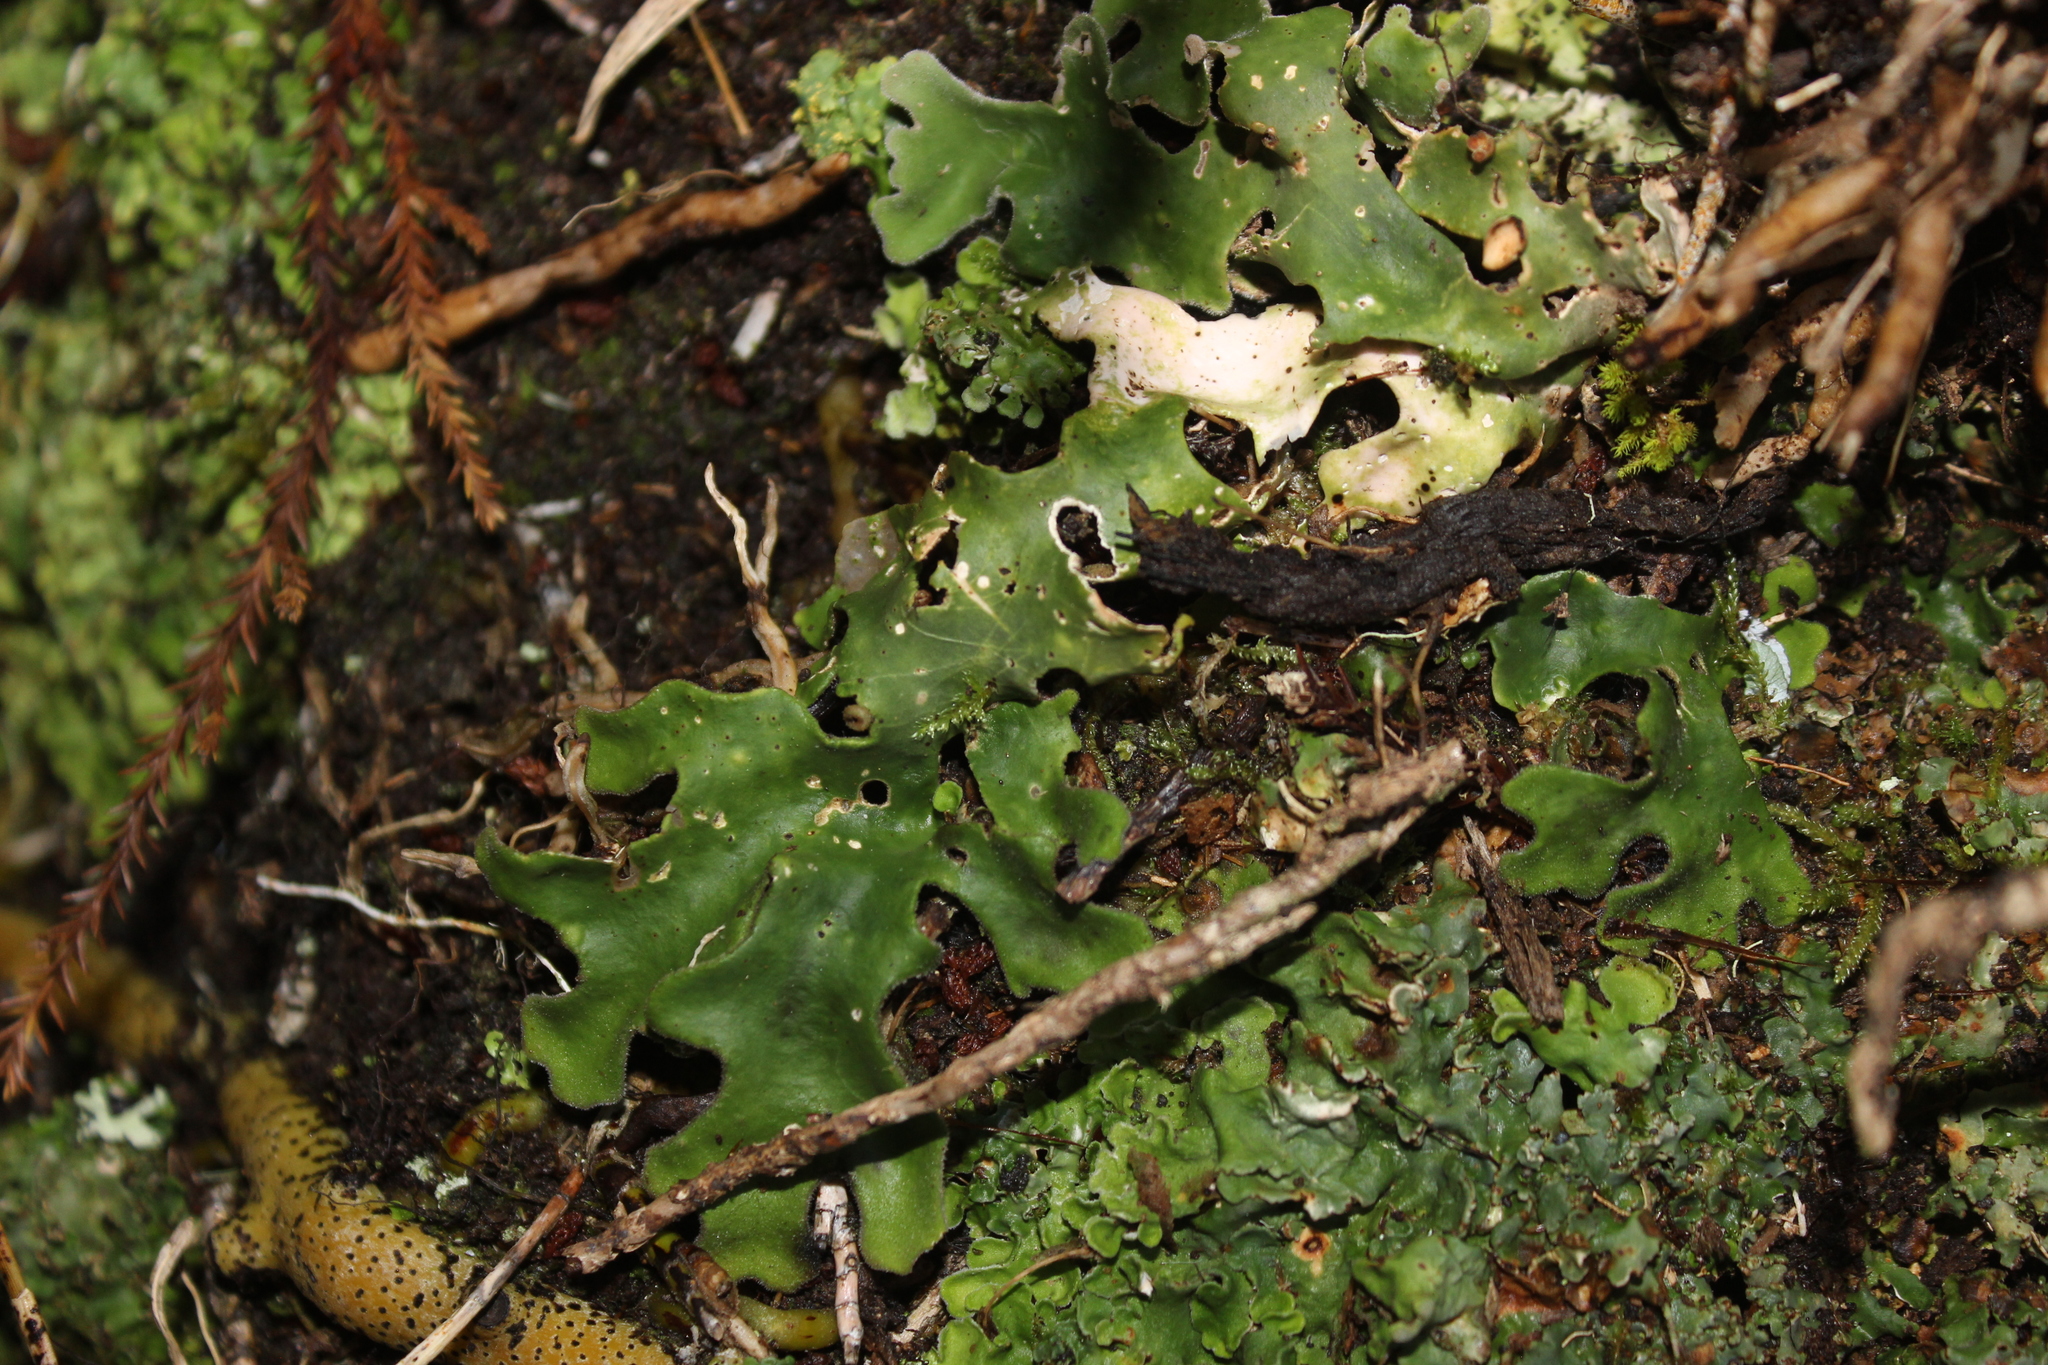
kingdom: Fungi
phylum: Ascomycota
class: Lecanoromycetes
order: Peltigerales
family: Lobariaceae
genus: Pseudocyphellaria
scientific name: Pseudocyphellaria coriacea
